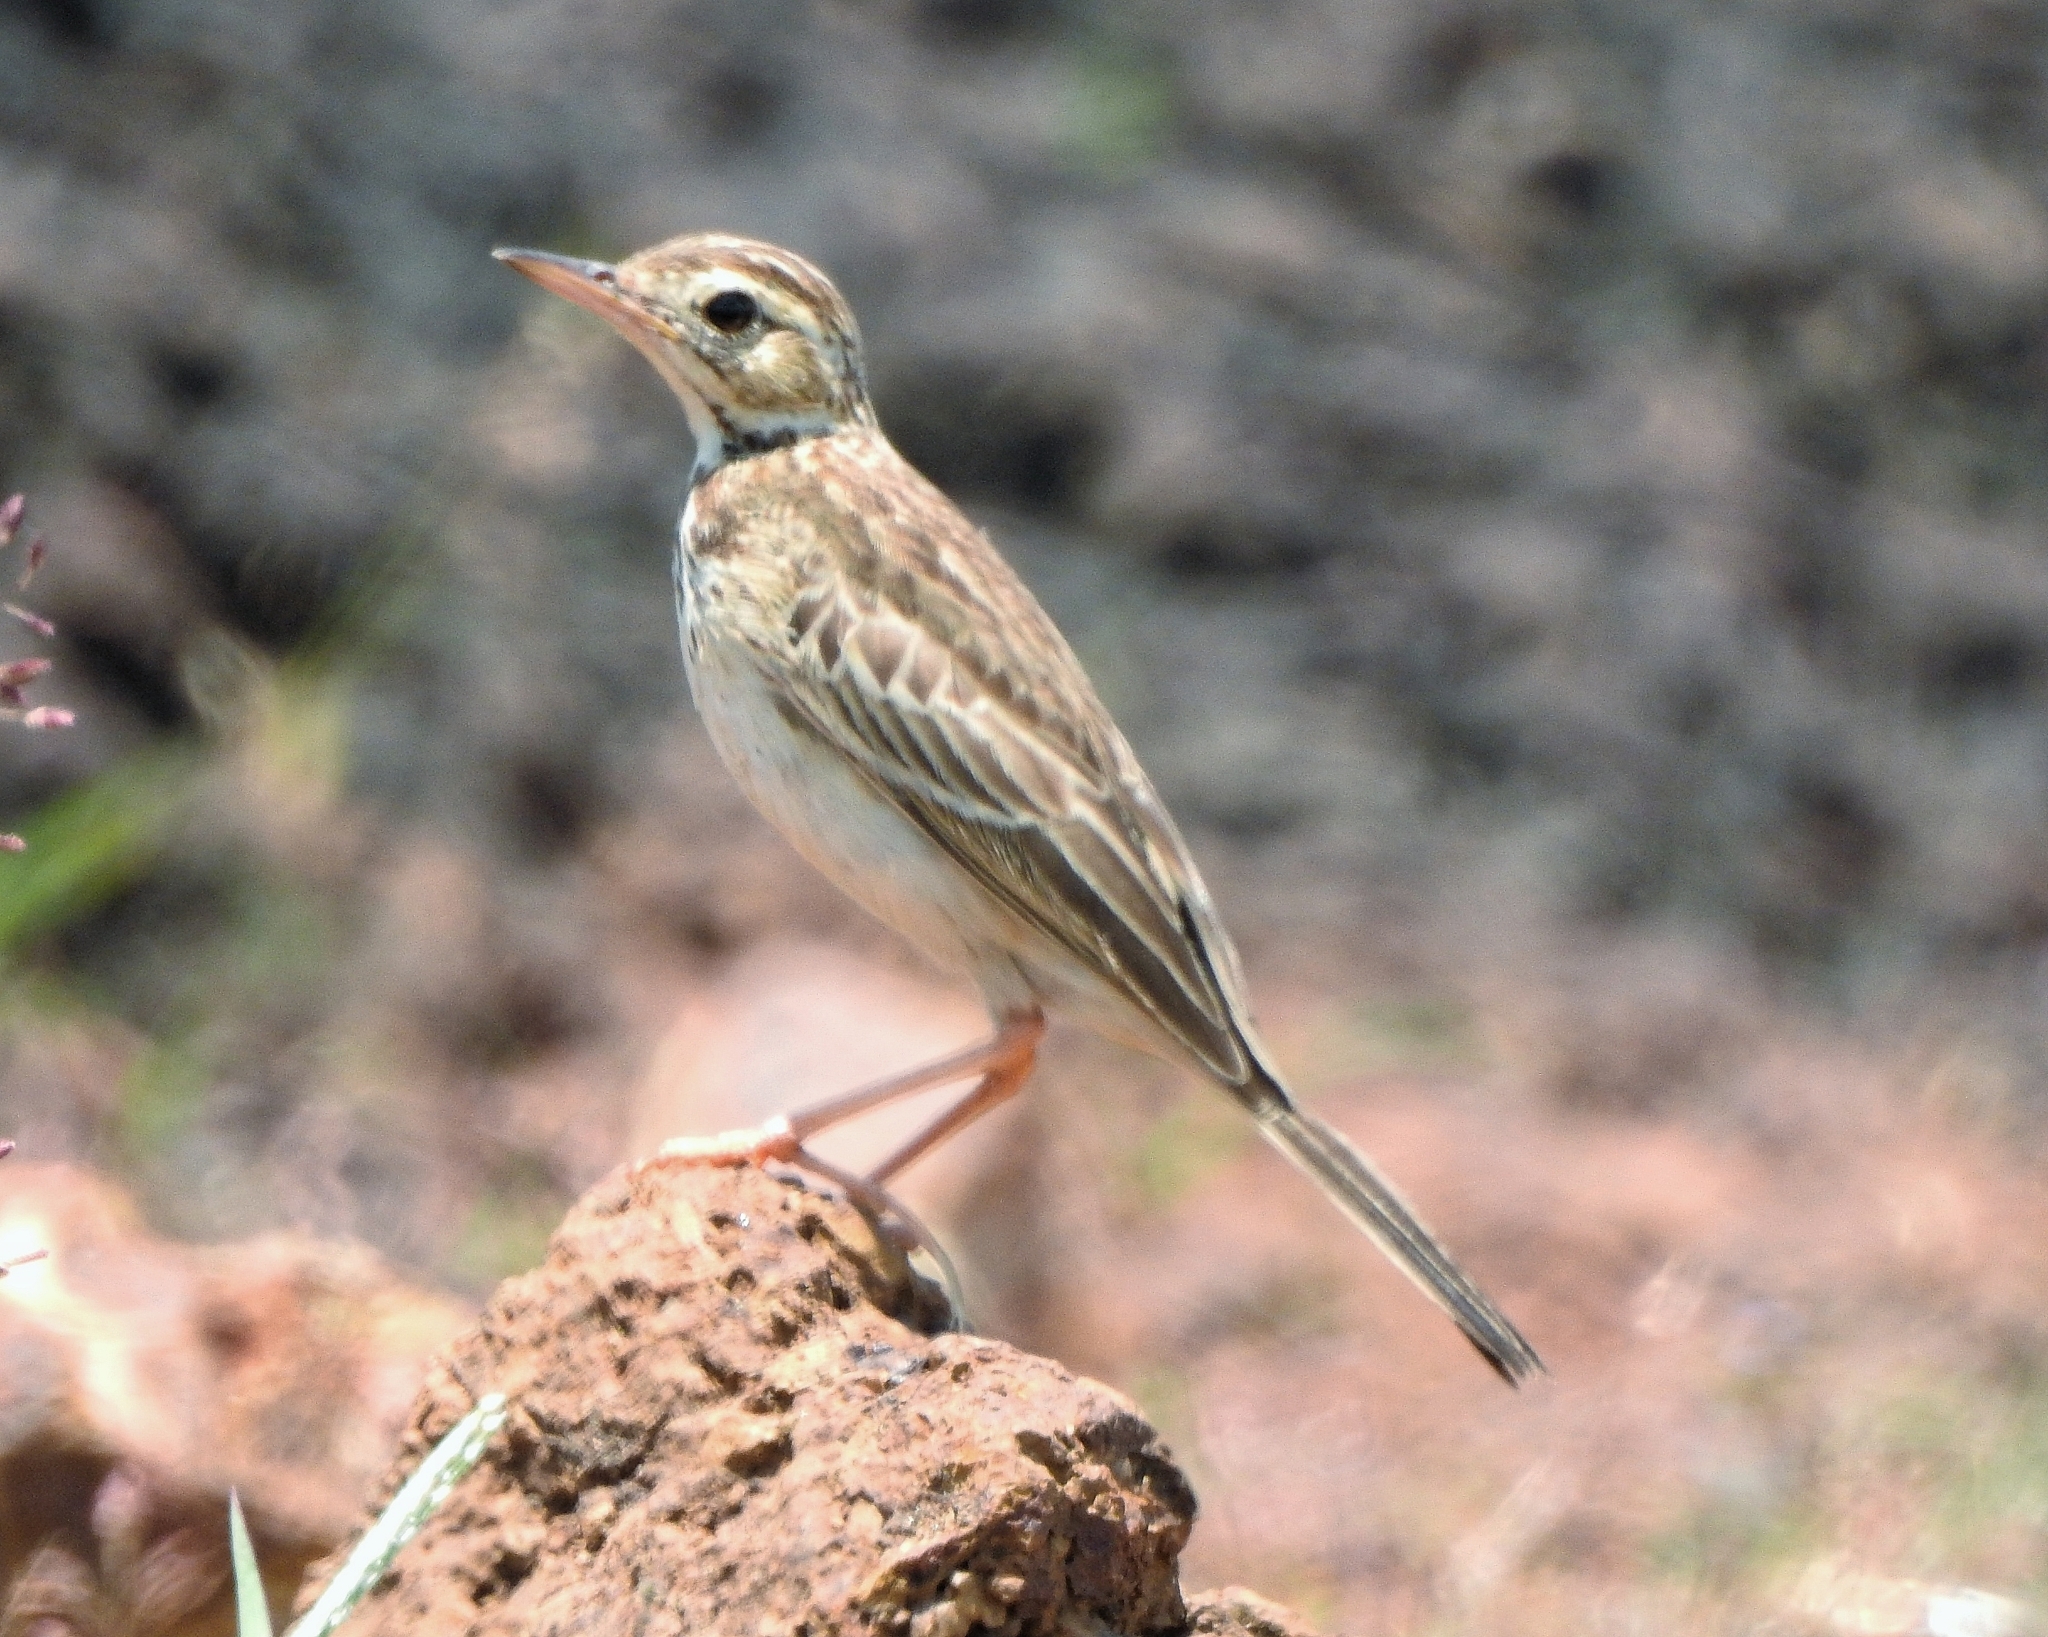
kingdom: Animalia
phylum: Chordata
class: Aves
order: Passeriformes
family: Motacillidae
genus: Anthus
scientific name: Anthus rufulus
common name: Paddyfield pipit
